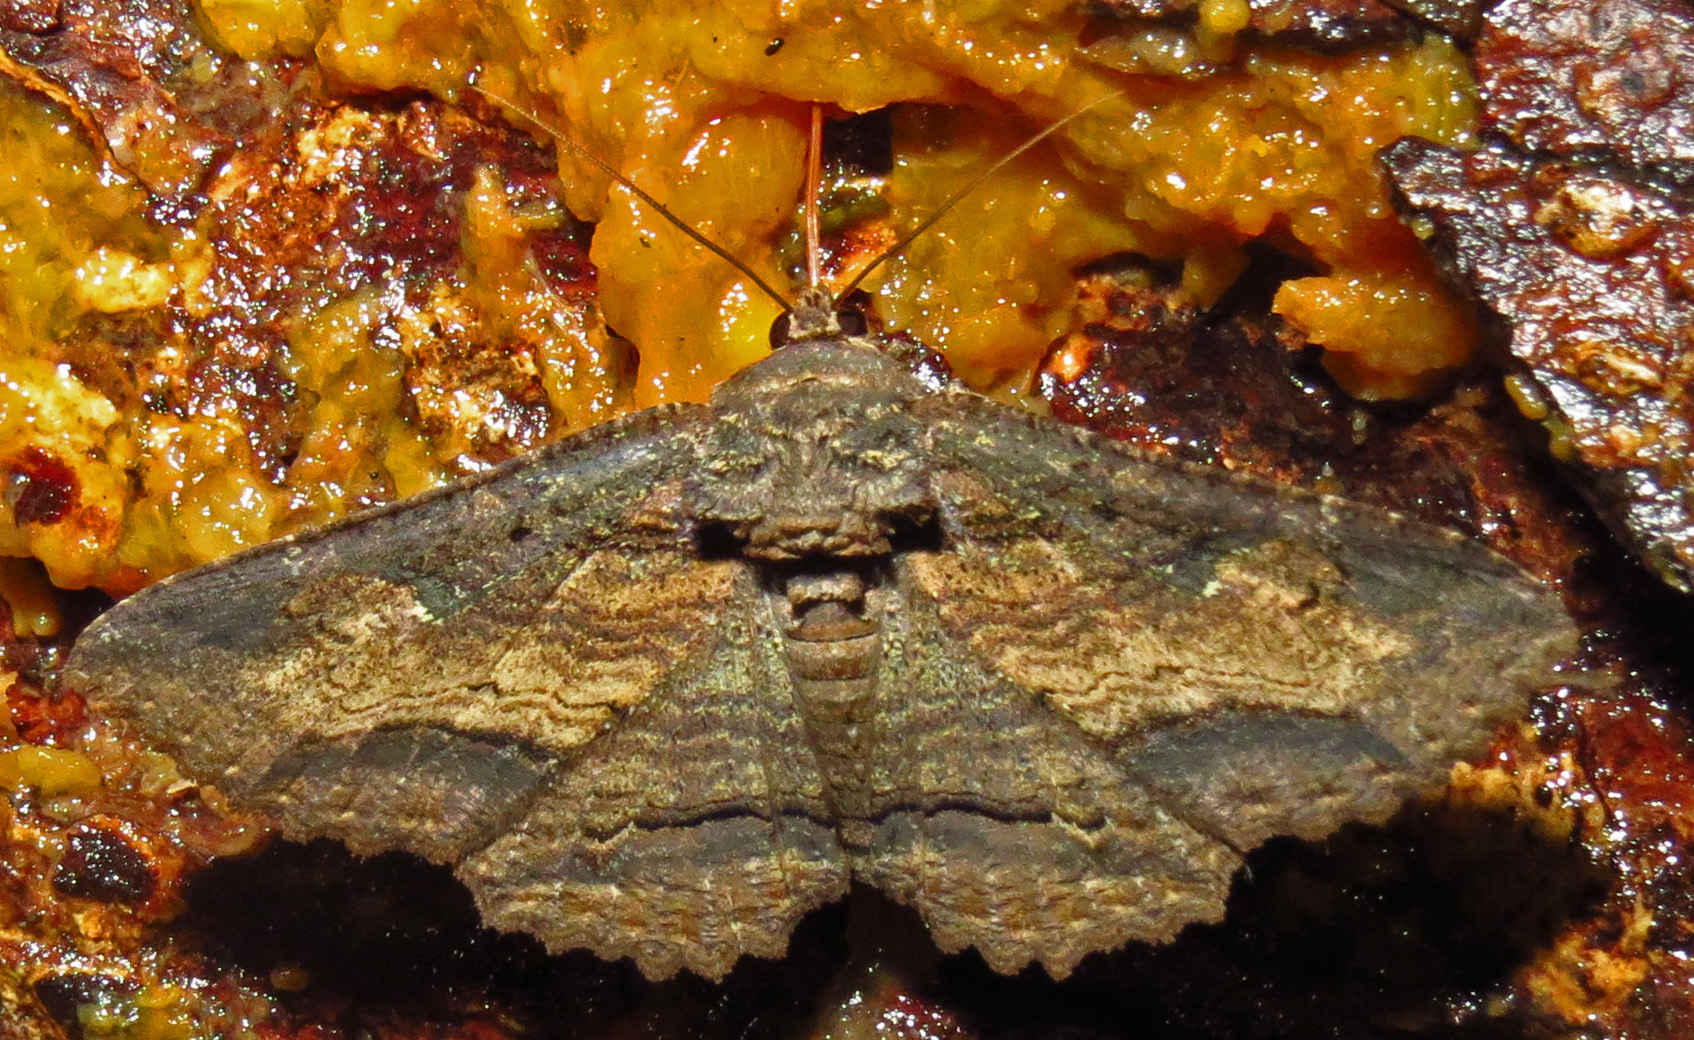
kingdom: Animalia
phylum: Arthropoda
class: Insecta
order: Lepidoptera
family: Erebidae
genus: Zale
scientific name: Zale lunata
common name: Lunate zale moth
